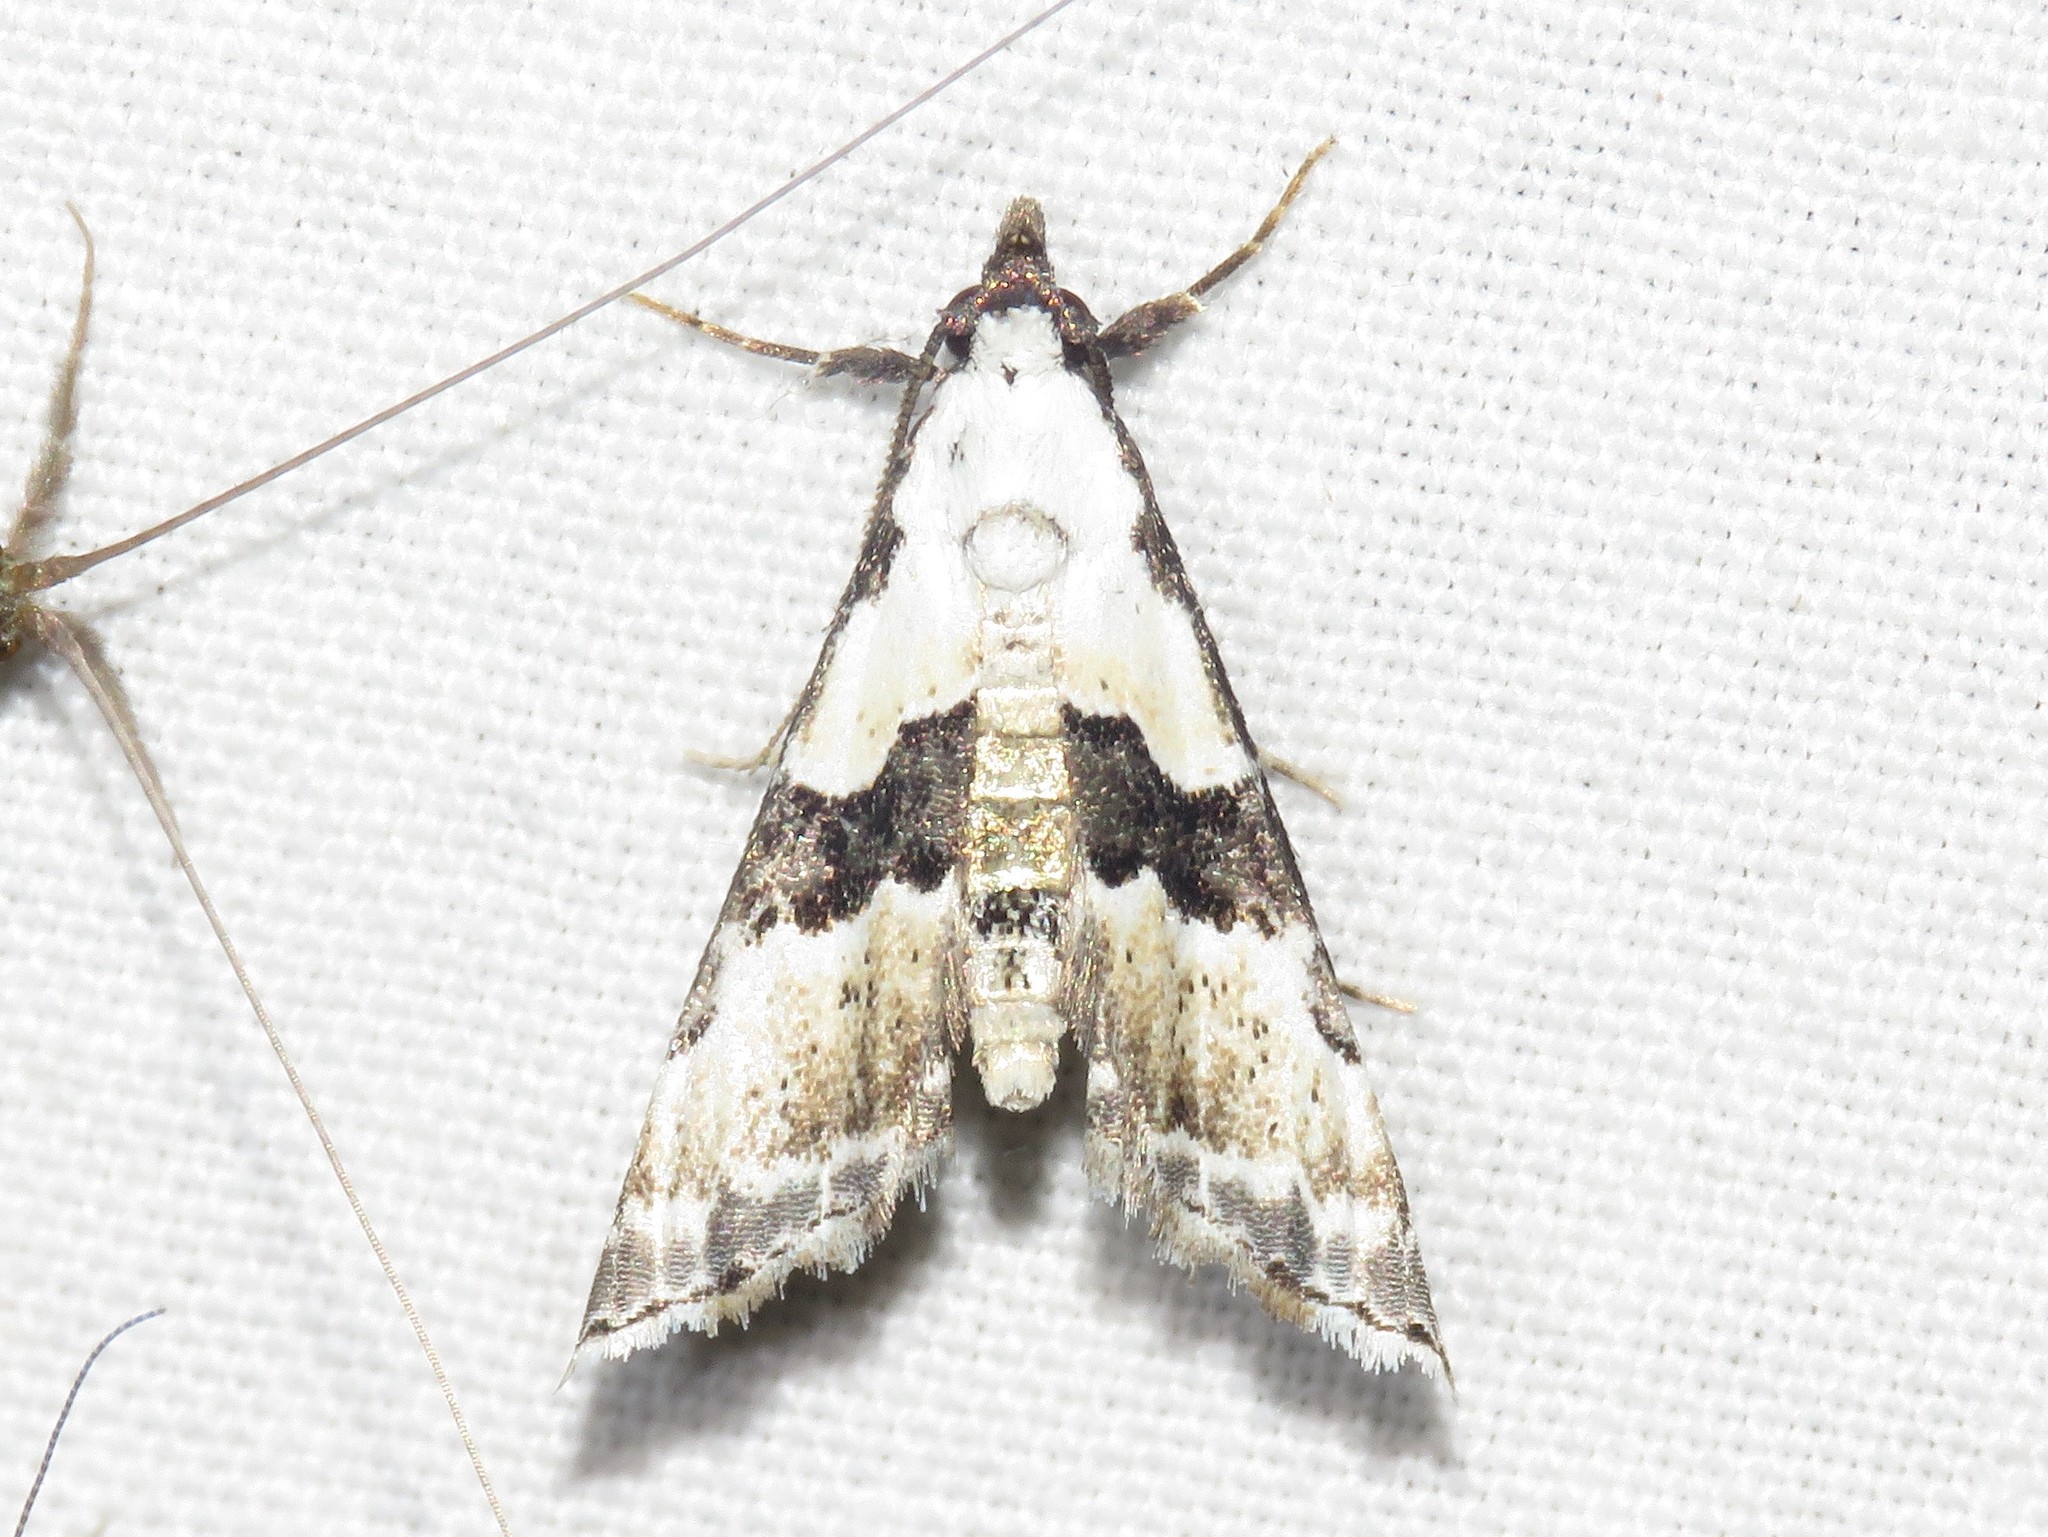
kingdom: Animalia
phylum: Arthropoda
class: Insecta
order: Lepidoptera
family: Noctuidae
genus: Nigetia
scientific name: Nigetia formosalis
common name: Thin-winged owlet
